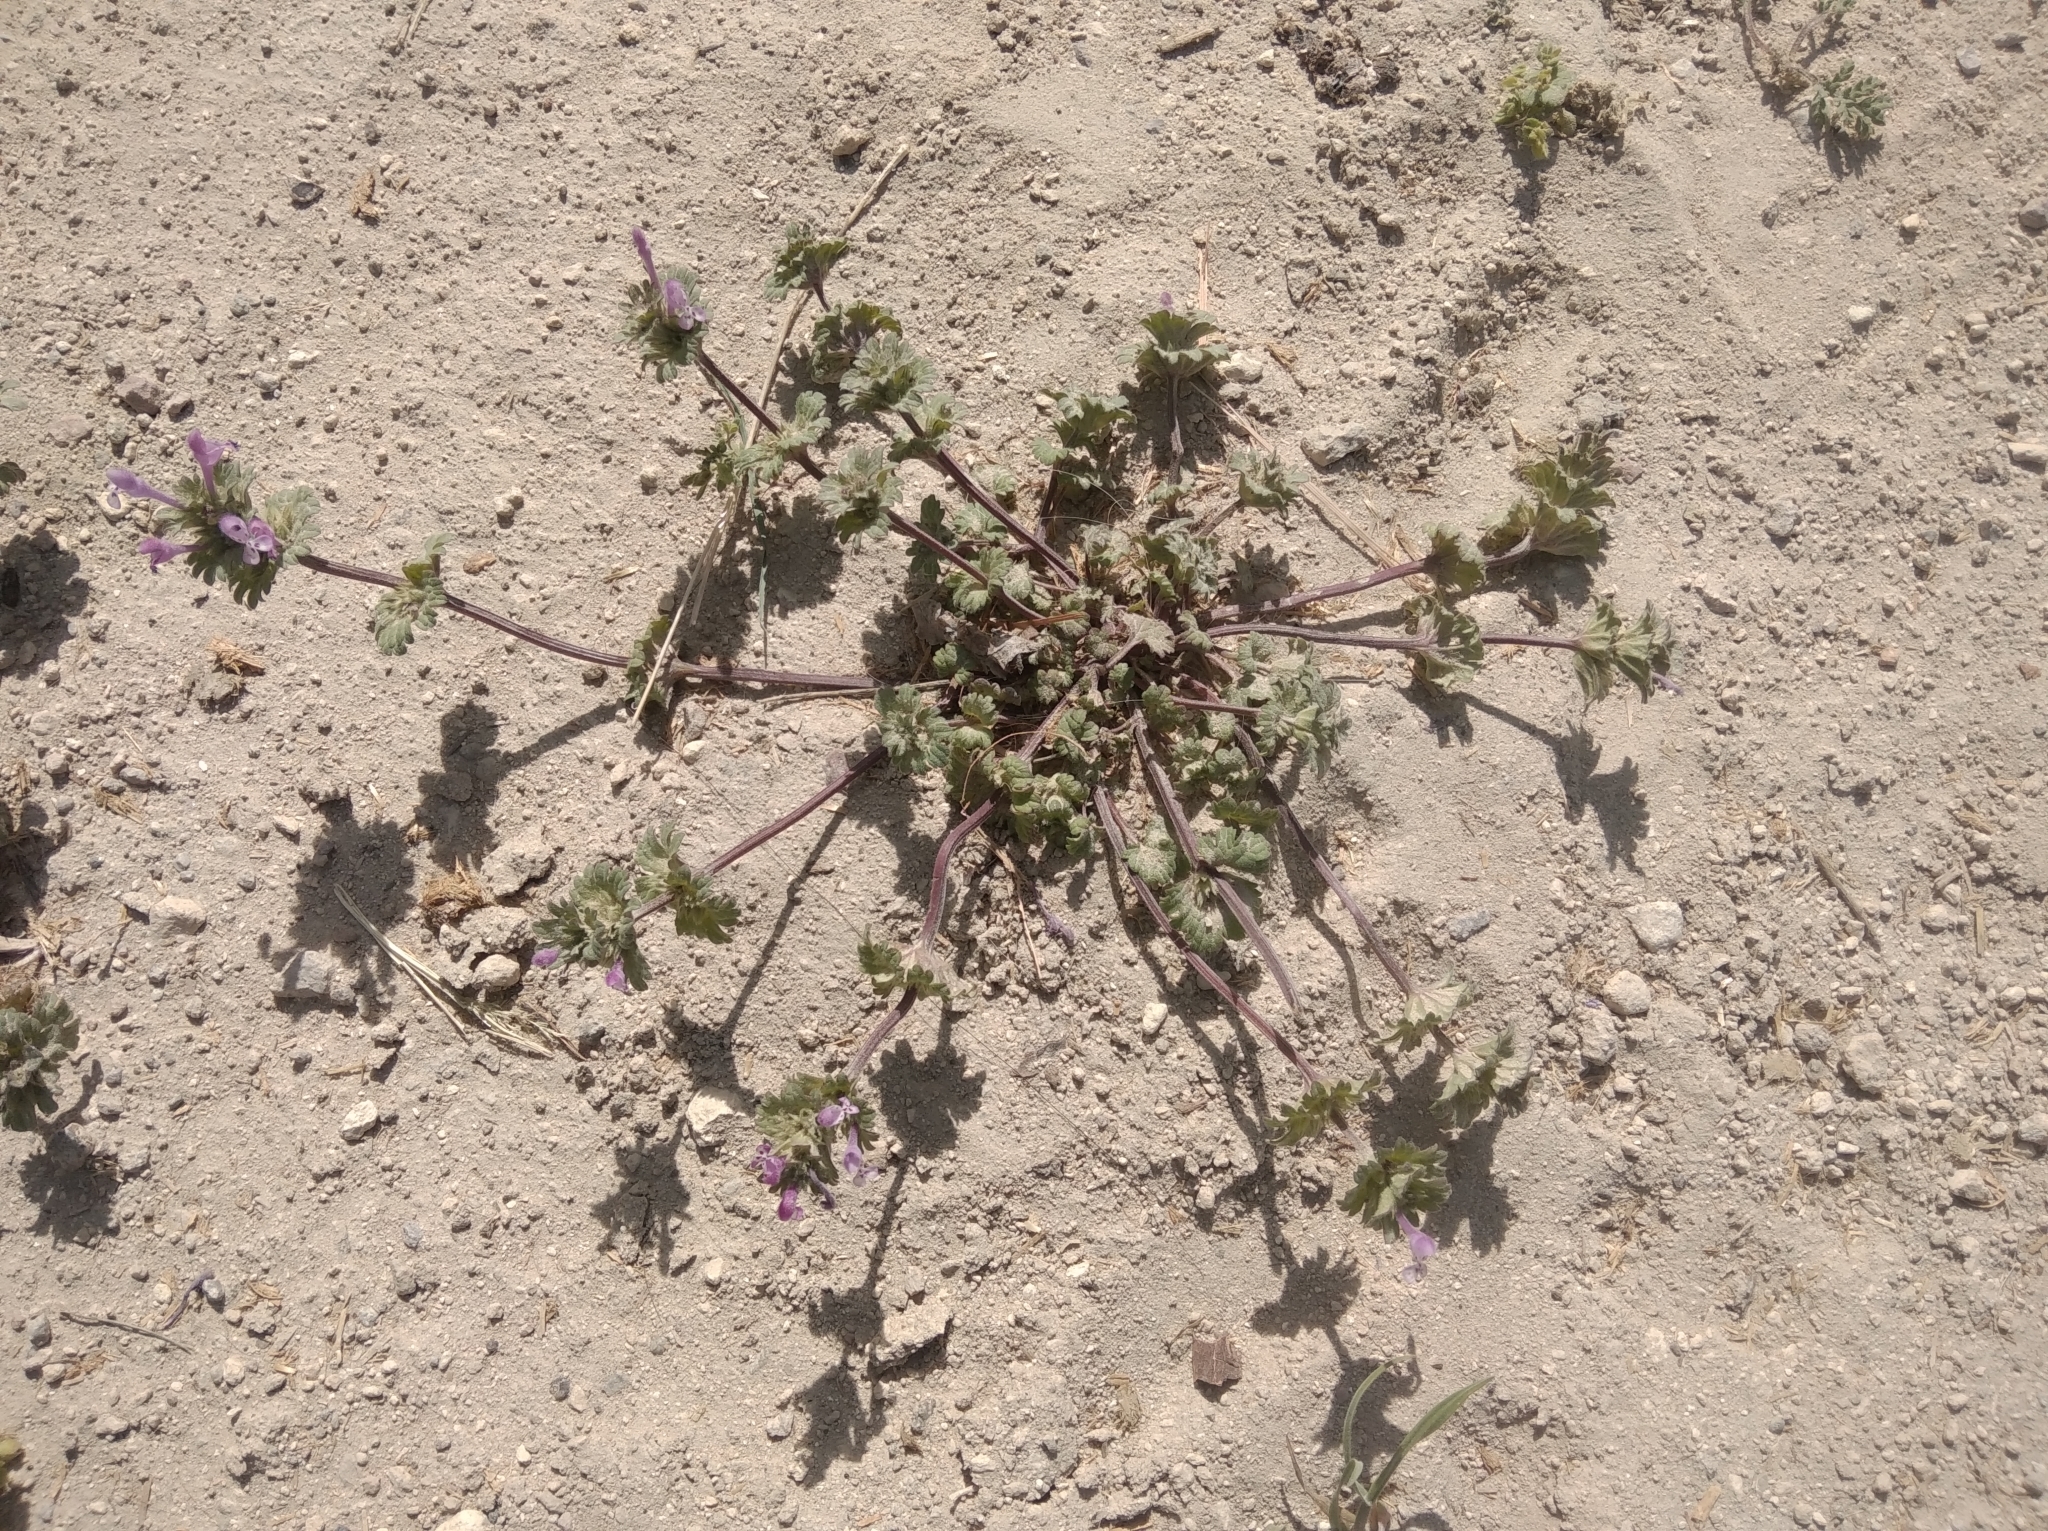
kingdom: Plantae
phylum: Tracheophyta
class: Magnoliopsida
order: Lamiales
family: Lamiaceae
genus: Lamium
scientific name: Lamium amplexicaule
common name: Henbit dead-nettle
